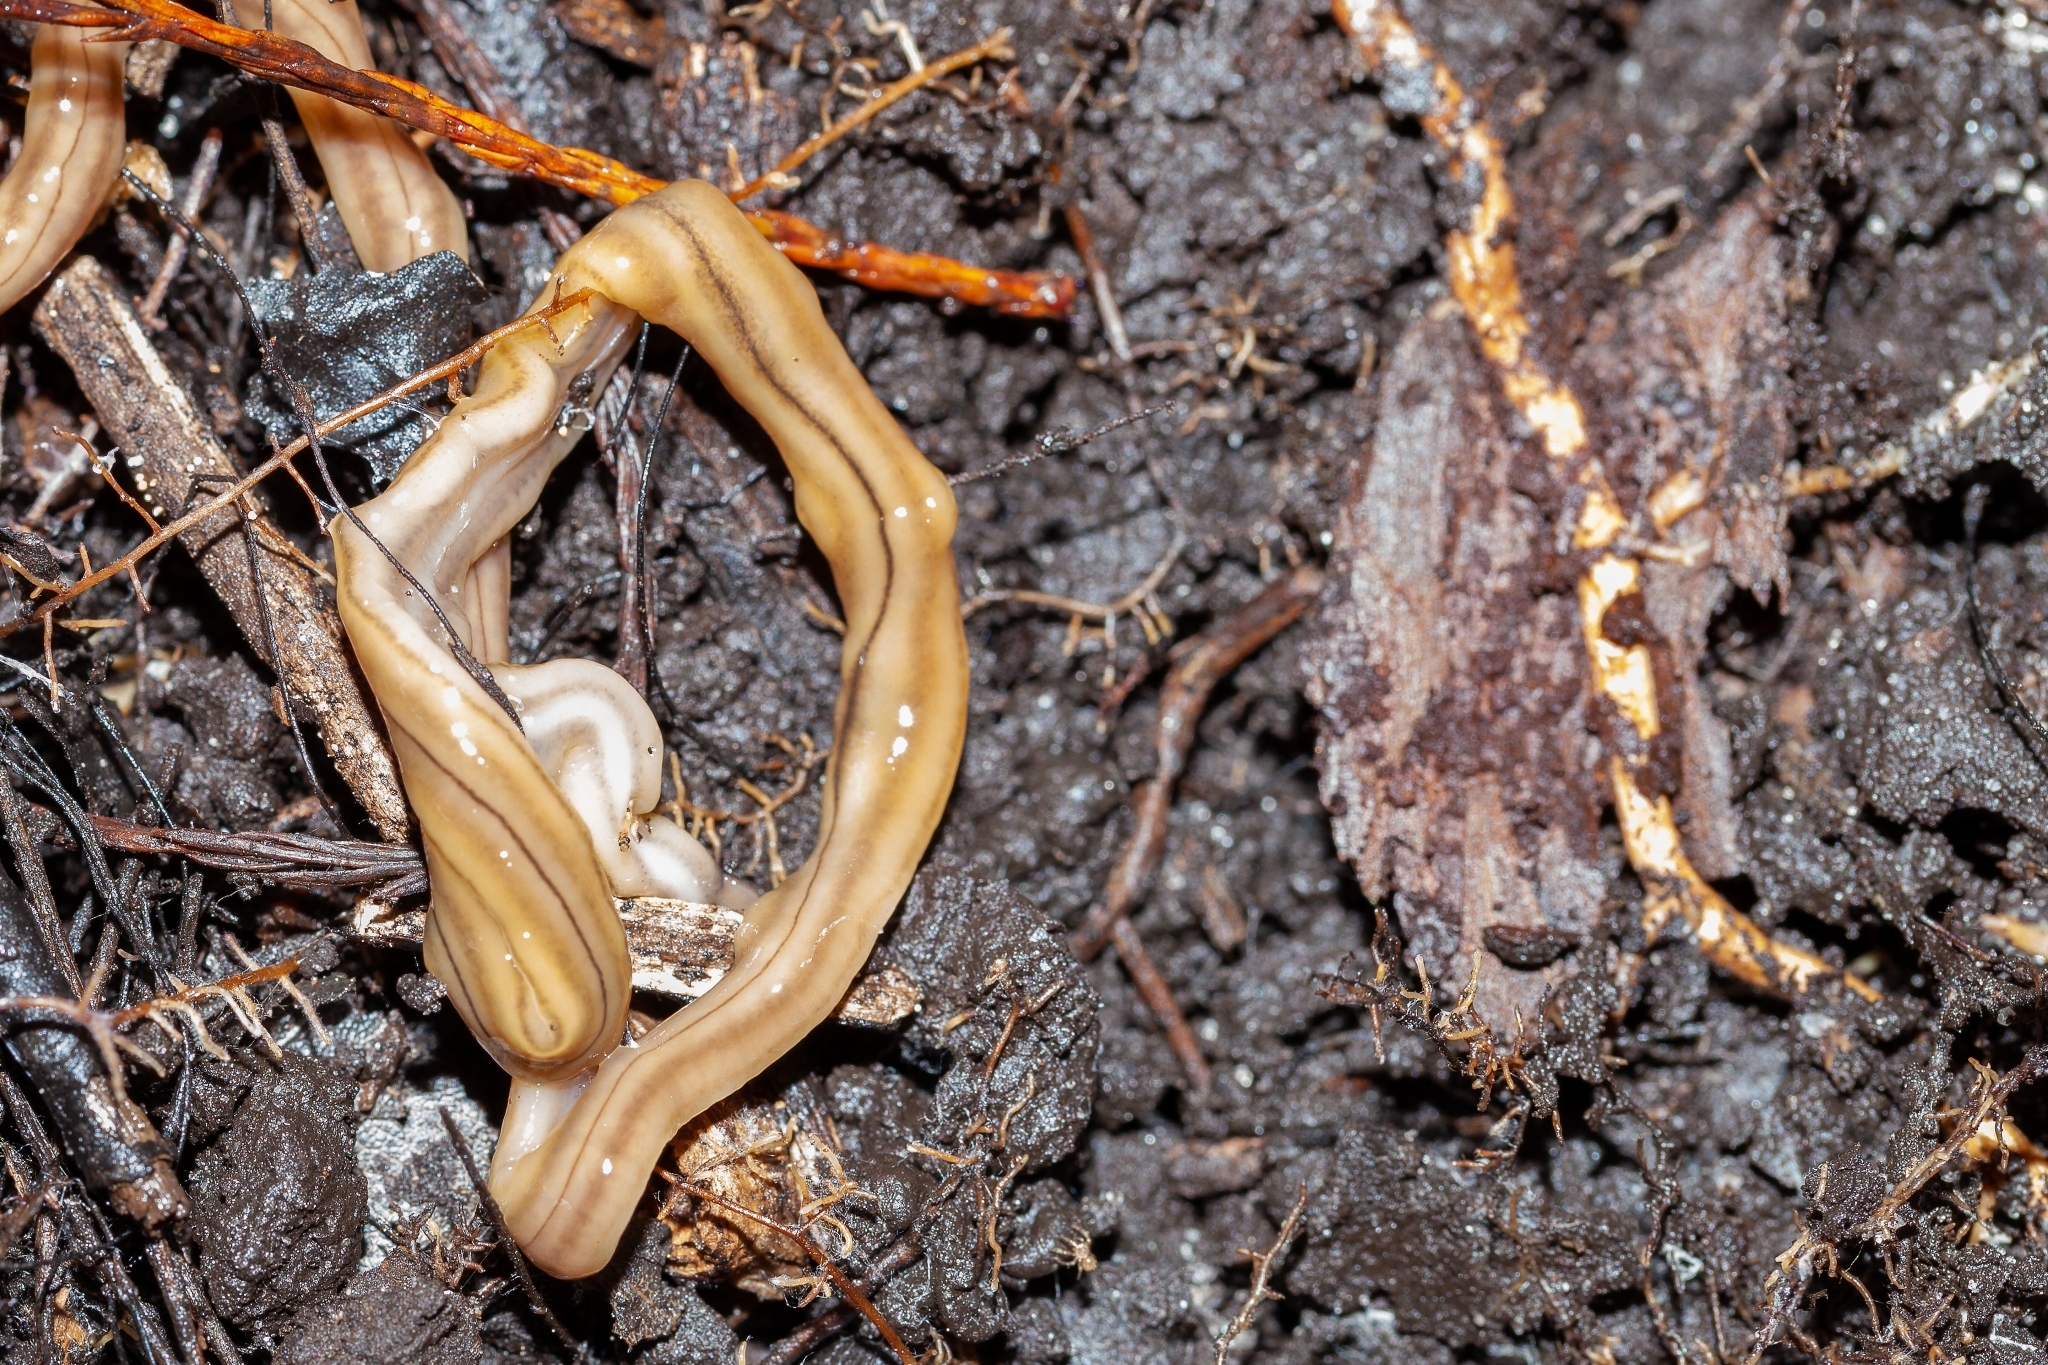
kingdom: Animalia
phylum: Platyhelminthes
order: Tricladida
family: Geoplanidae
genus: Bipalium
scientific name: Bipalium kewense
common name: Hammerhead flatworm
